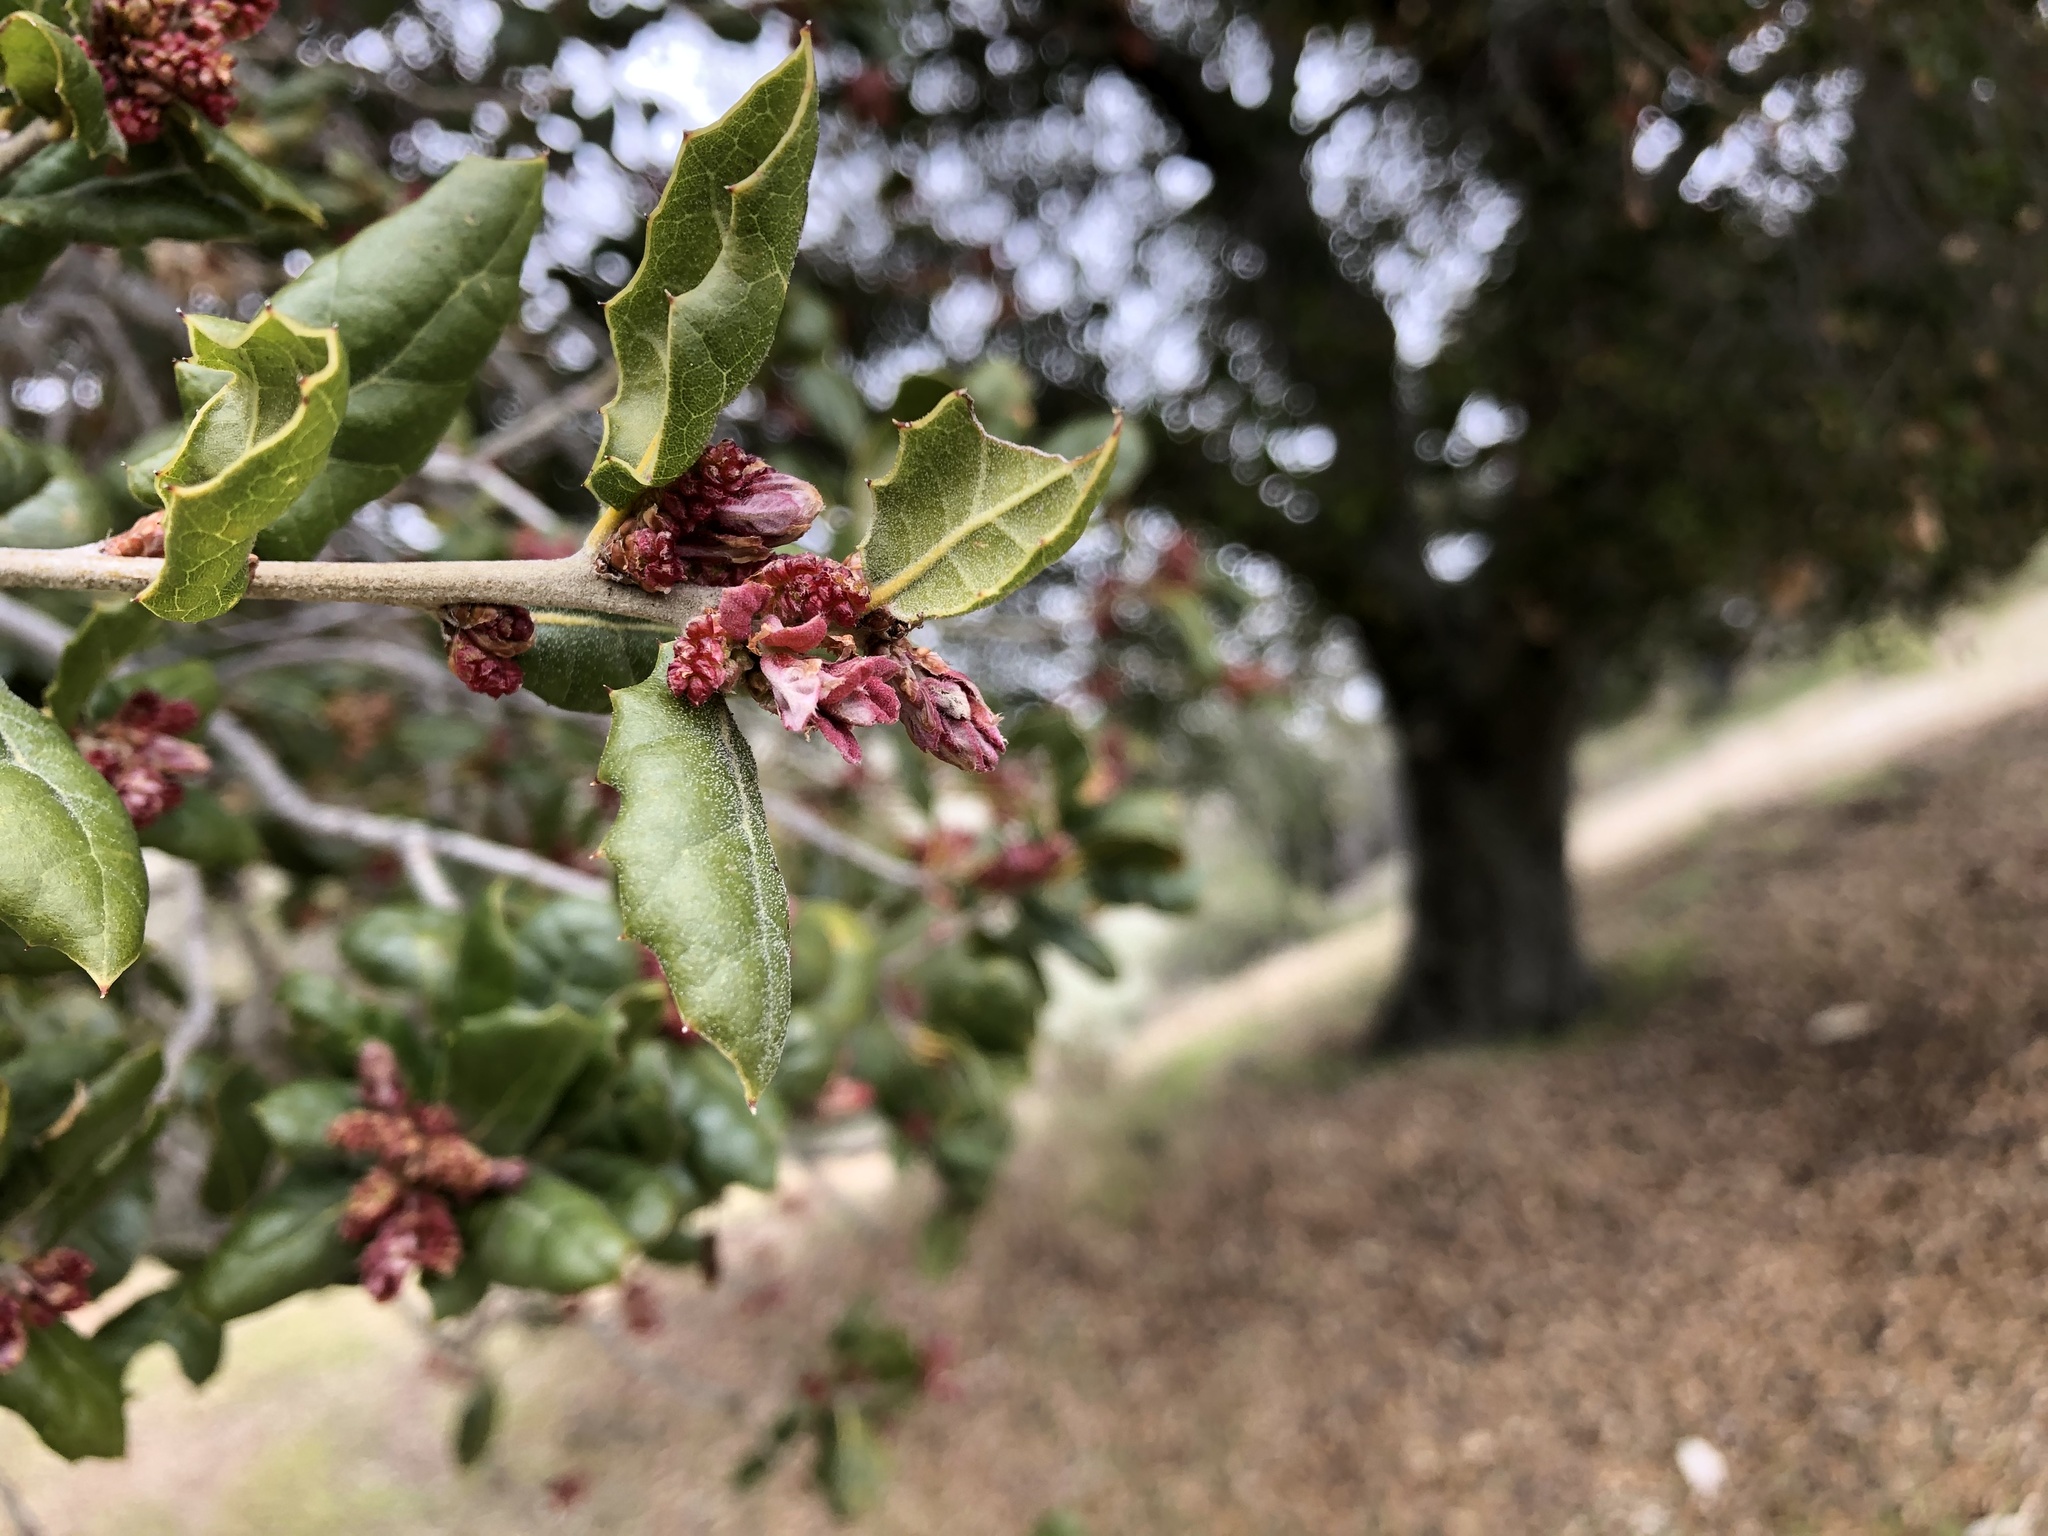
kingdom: Plantae
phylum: Tracheophyta
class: Magnoliopsida
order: Fagales
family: Fagaceae
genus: Quercus
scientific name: Quercus agrifolia
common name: California live oak
